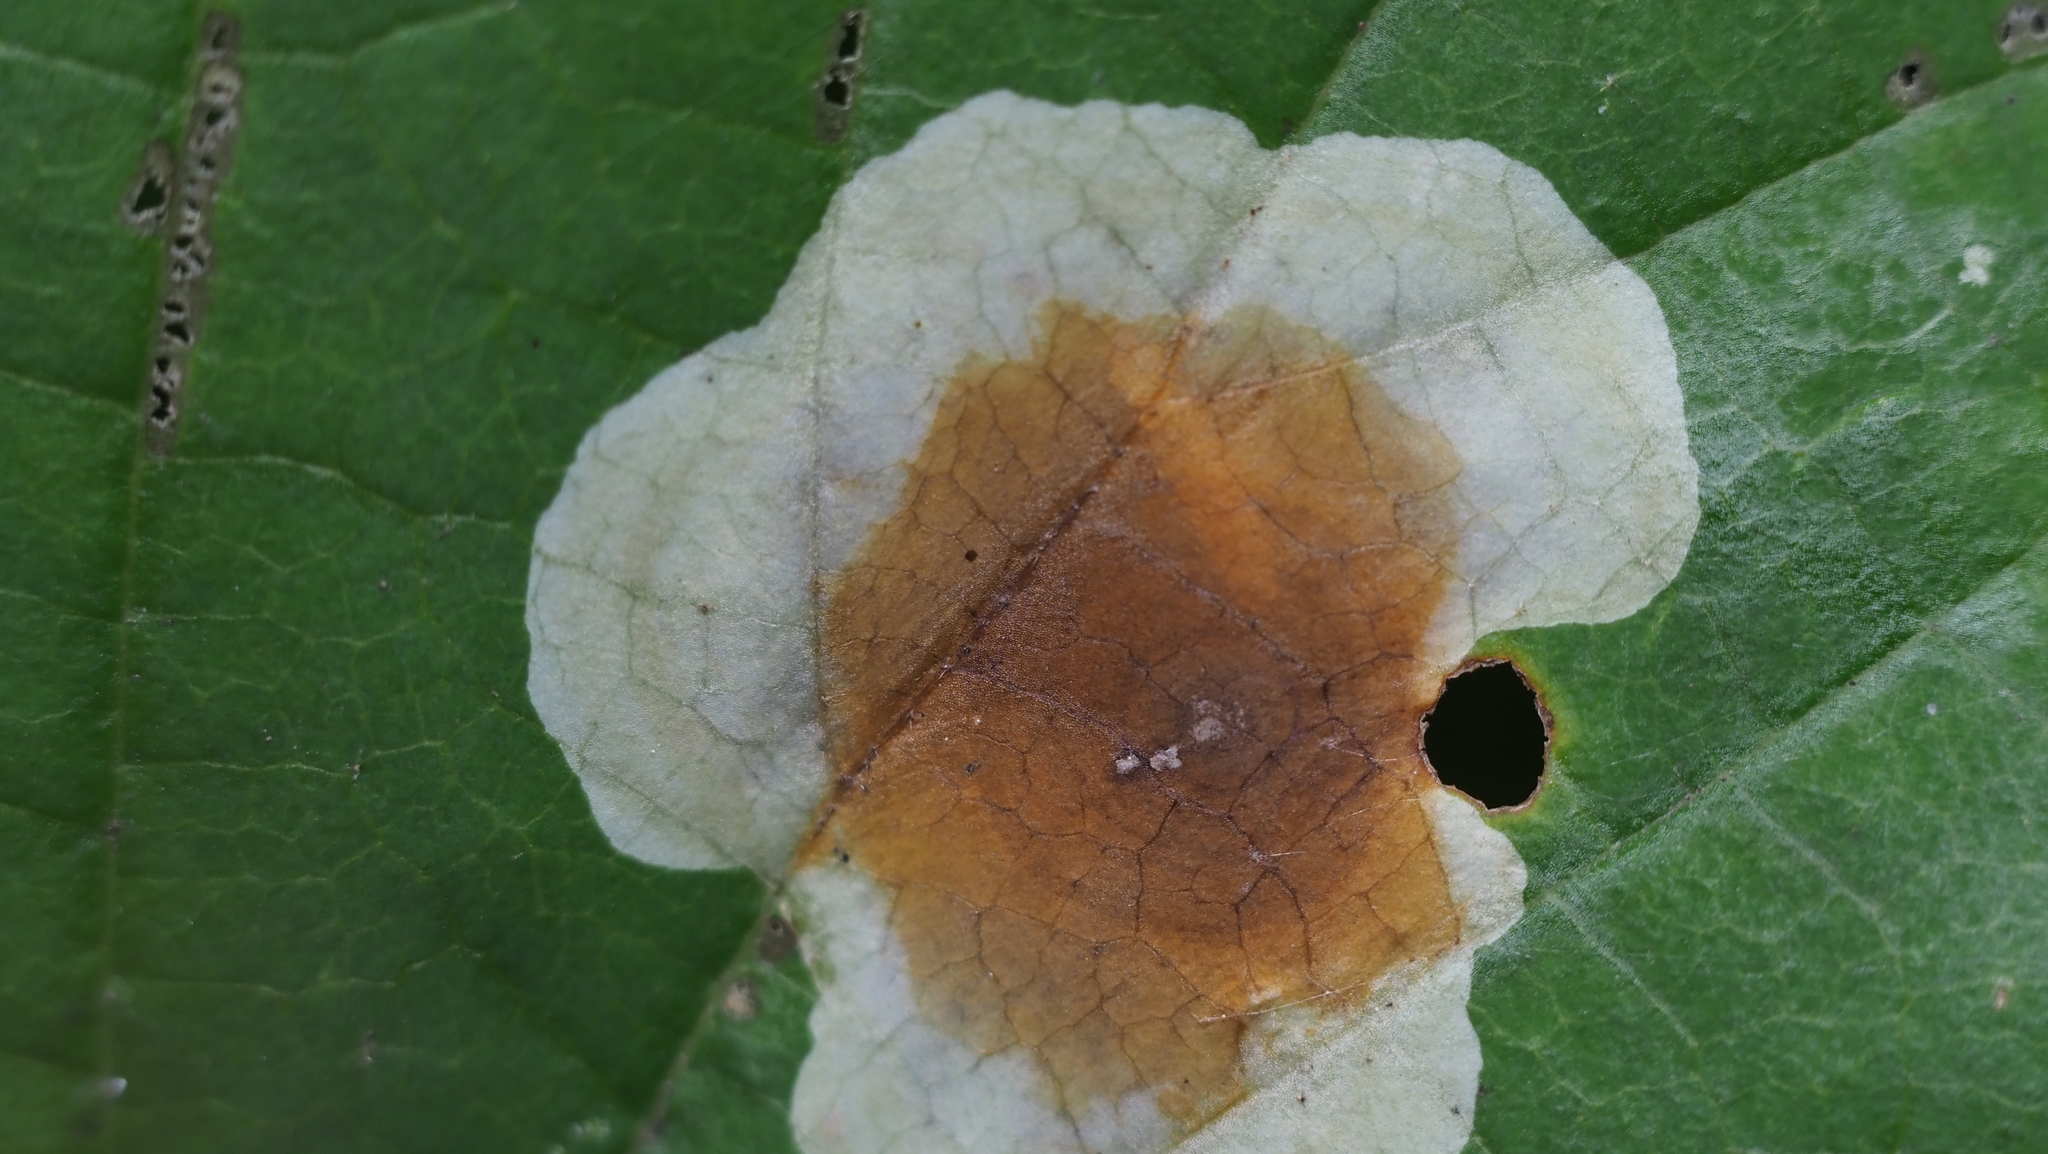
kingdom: Animalia
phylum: Arthropoda
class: Insecta
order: Lepidoptera
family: Gracillariidae
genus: Cameraria
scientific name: Cameraria hamameliella
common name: Witchhazel leafminer
